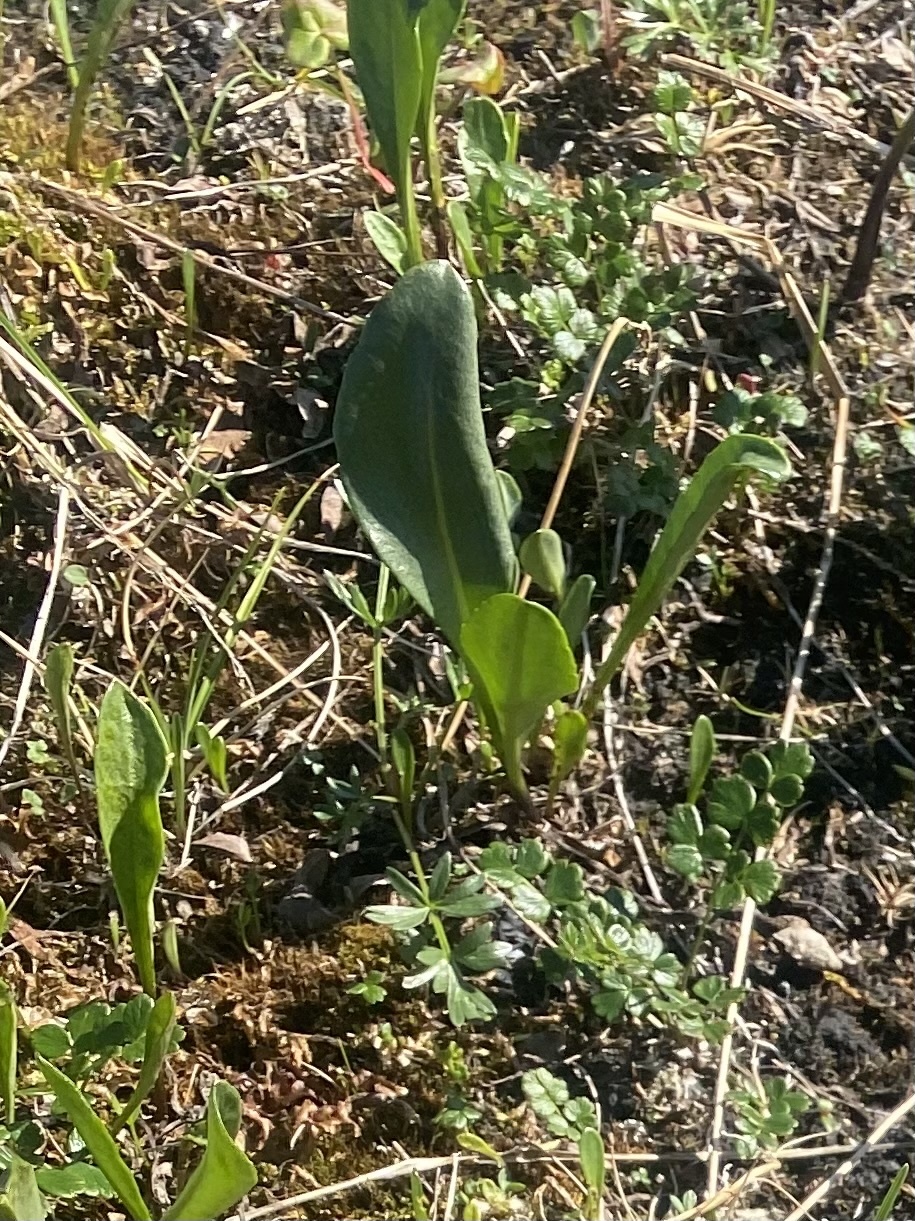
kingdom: Plantae
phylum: Tracheophyta
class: Magnoliopsida
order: Lamiales
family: Plantaginaceae
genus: Lagotis
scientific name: Lagotis glauca
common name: Glaucous weaselsnout
